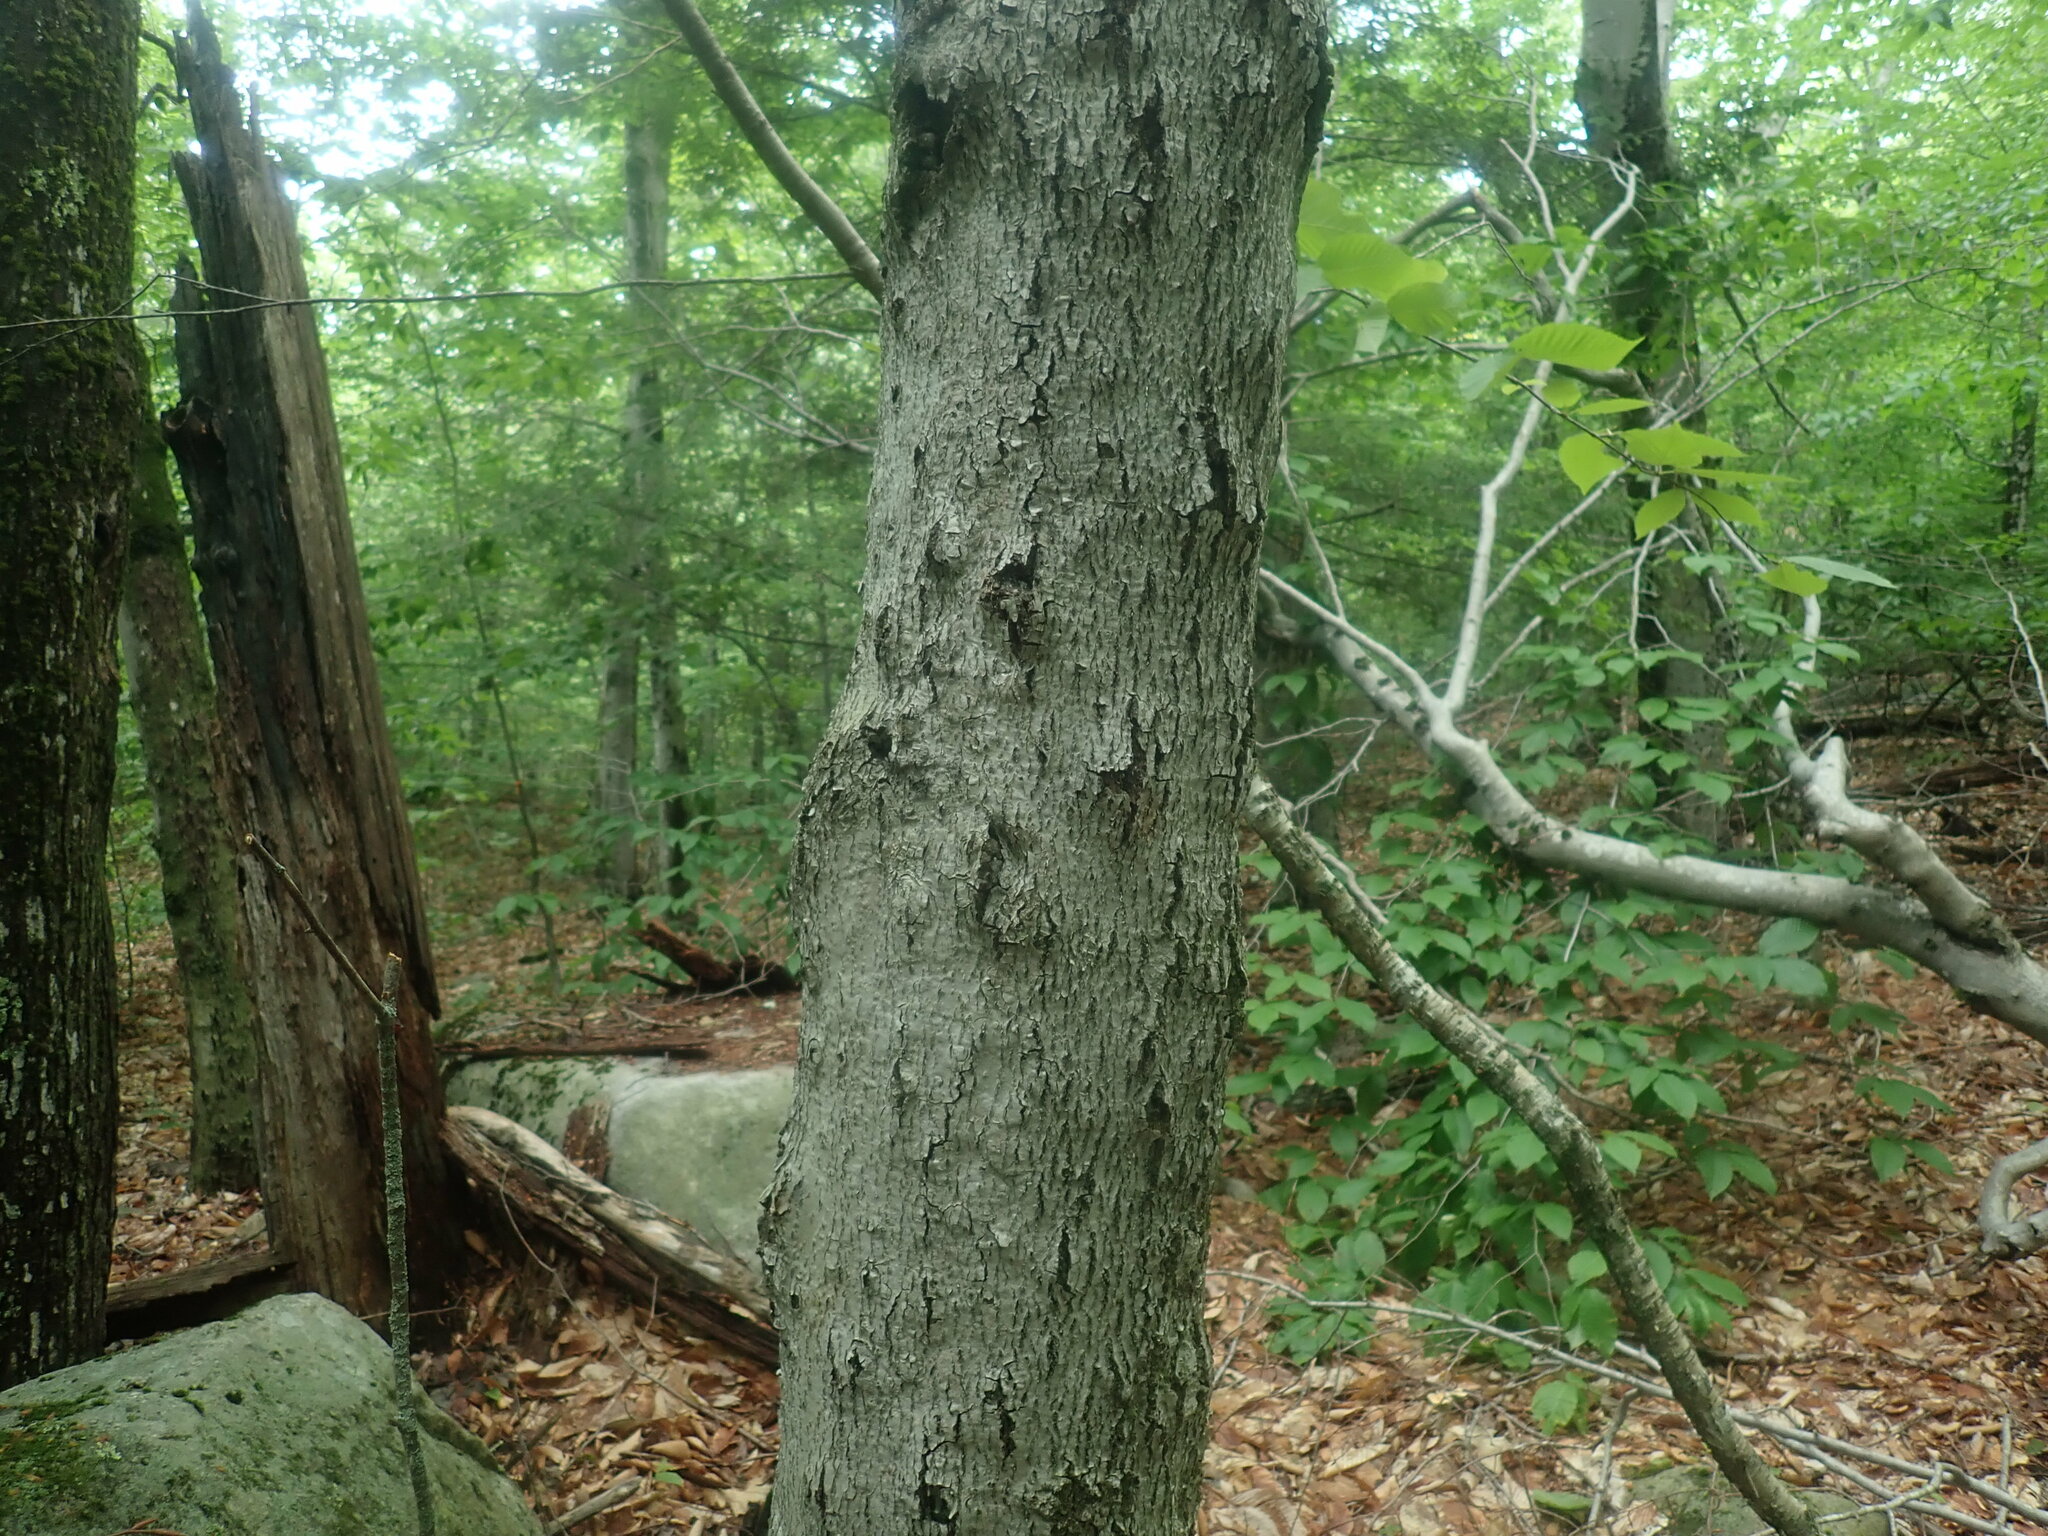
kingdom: Fungi
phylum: Ascomycota
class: Sordariomycetes
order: Hypocreales
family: Nectriaceae
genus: Neonectria
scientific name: Neonectria faginata
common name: Beech bark canker
